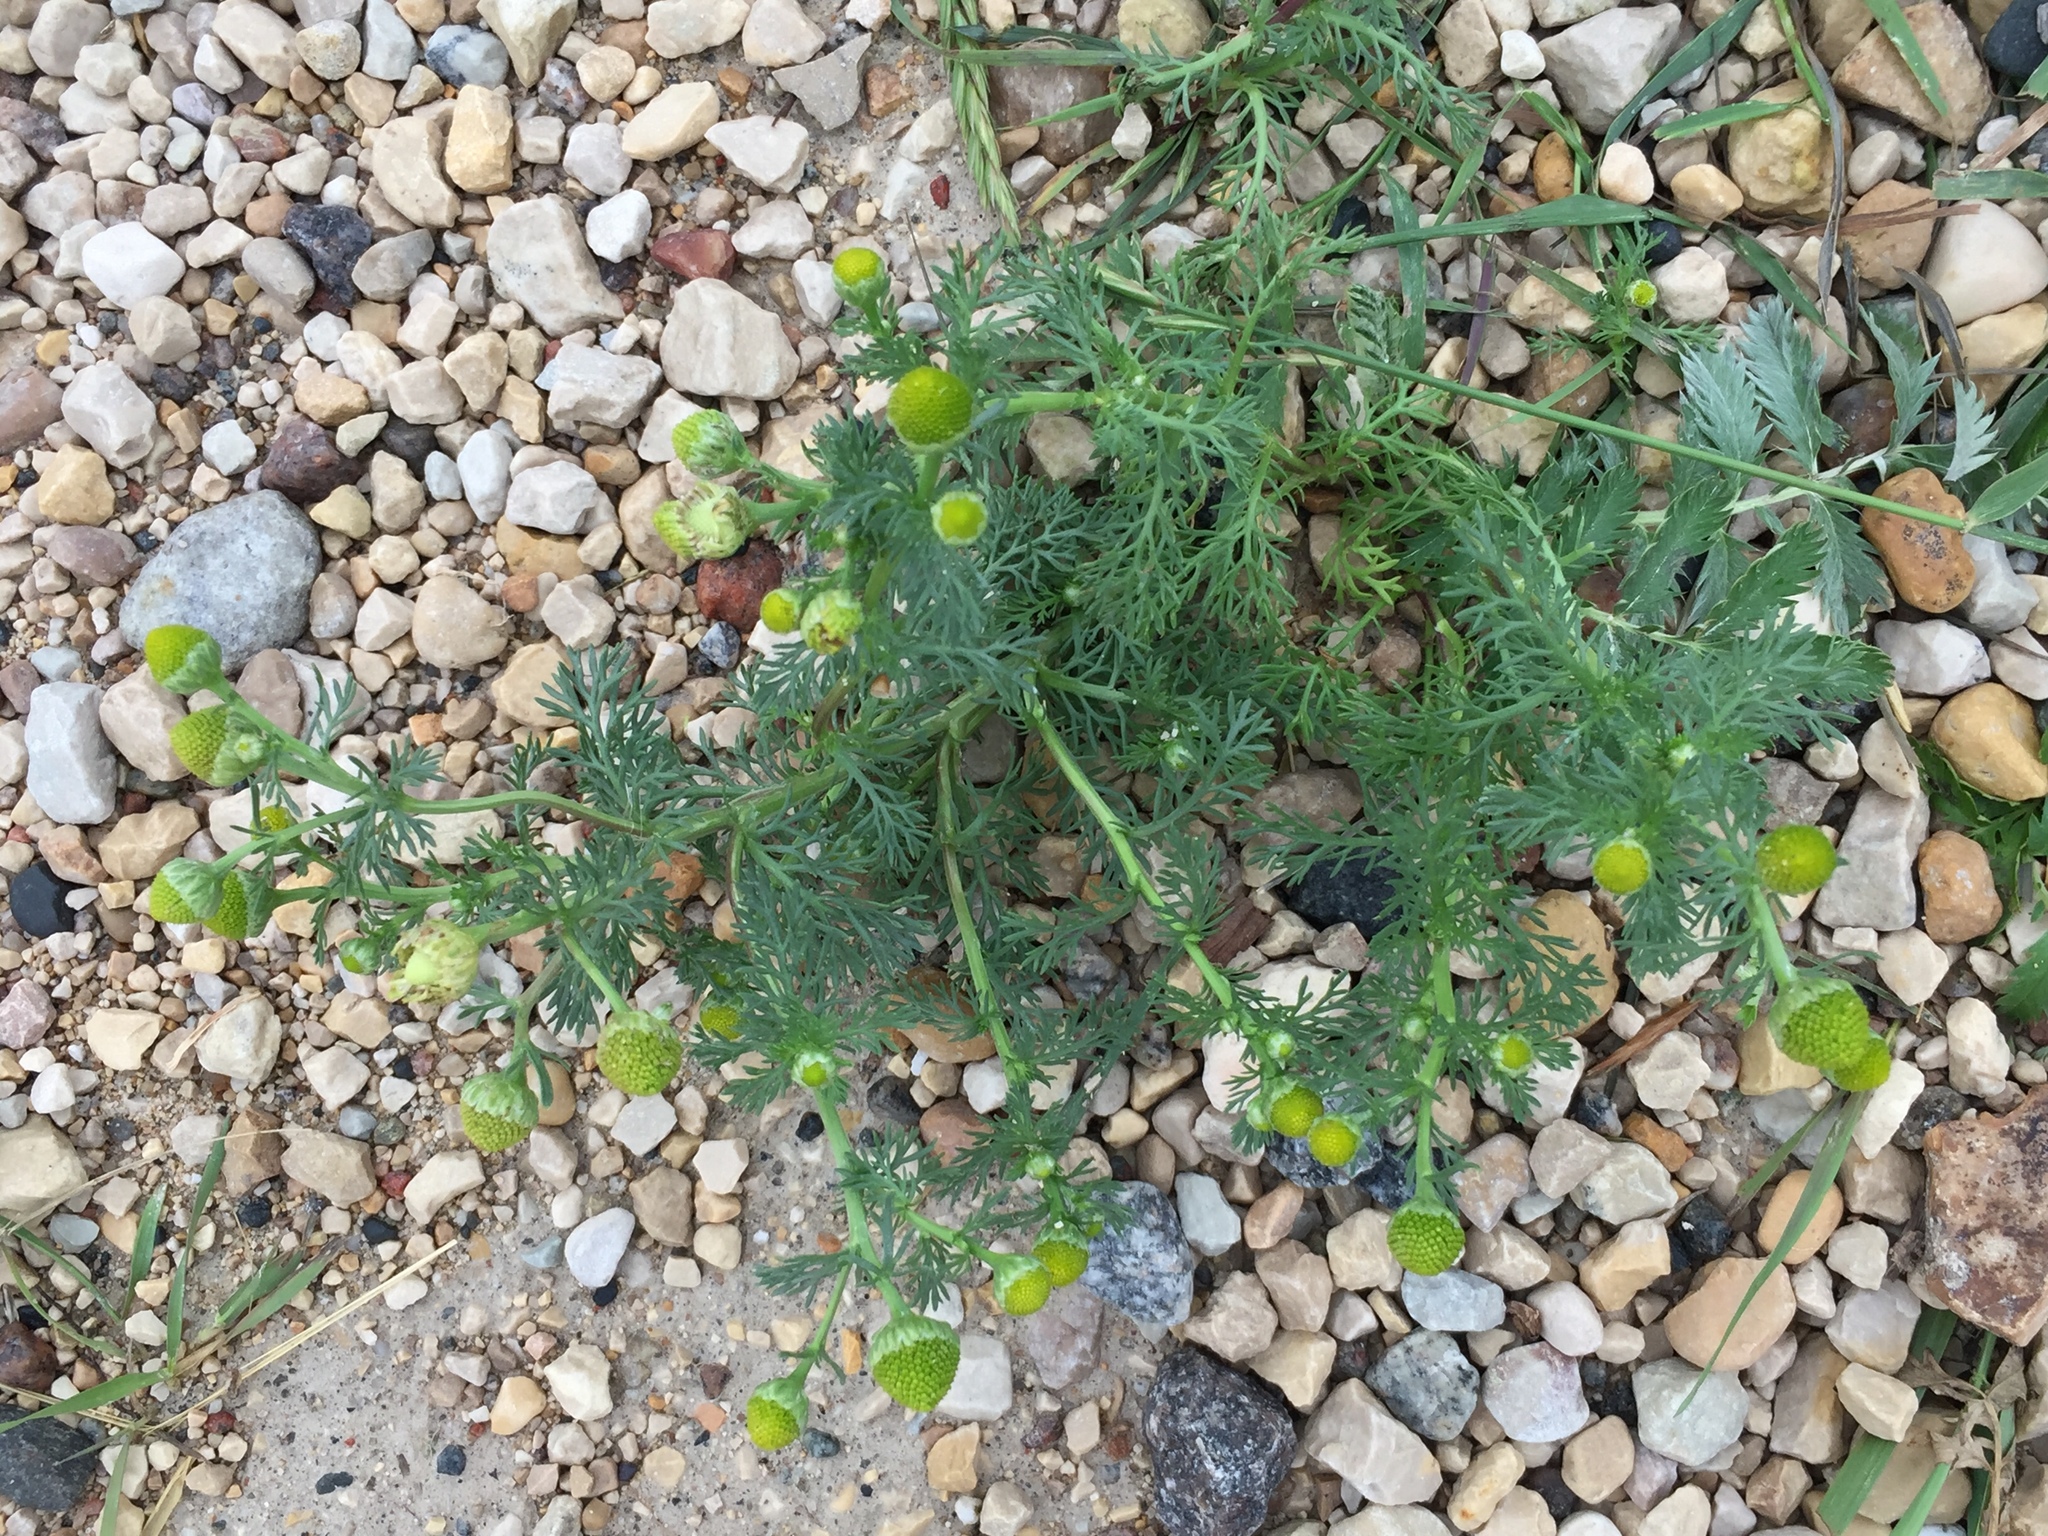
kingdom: Plantae
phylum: Tracheophyta
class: Magnoliopsida
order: Asterales
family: Asteraceae
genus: Matricaria
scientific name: Matricaria discoidea
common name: Disc mayweed
